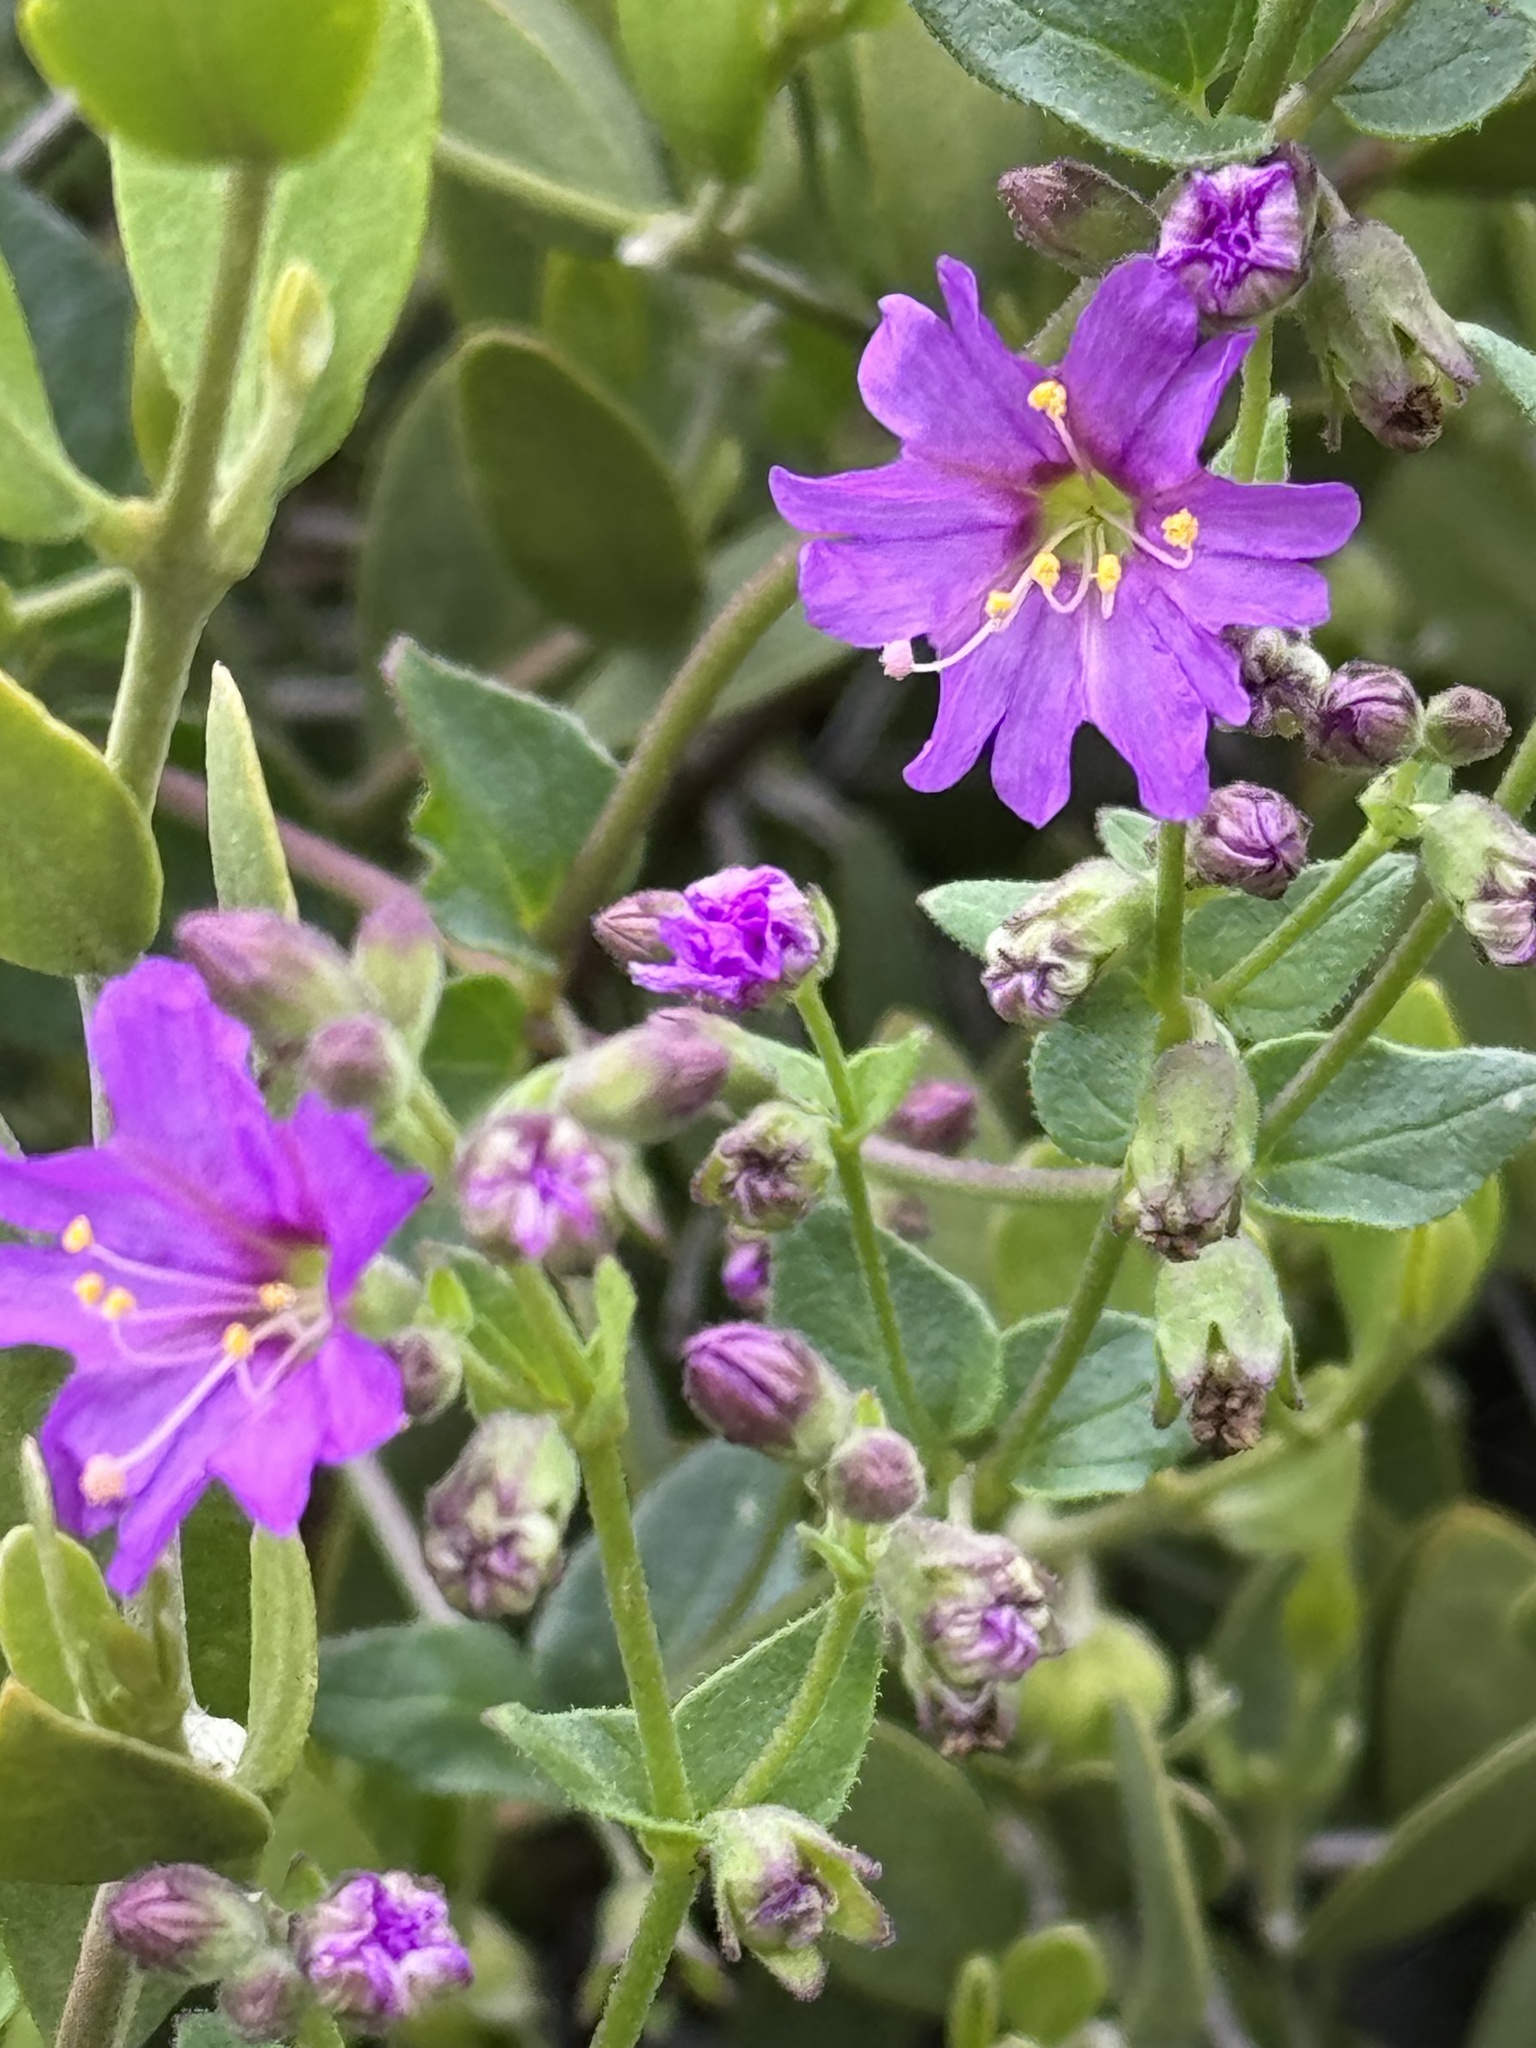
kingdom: Plantae
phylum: Tracheophyta
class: Magnoliopsida
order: Caryophyllales
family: Nyctaginaceae
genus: Mirabilis
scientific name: Mirabilis laevis
